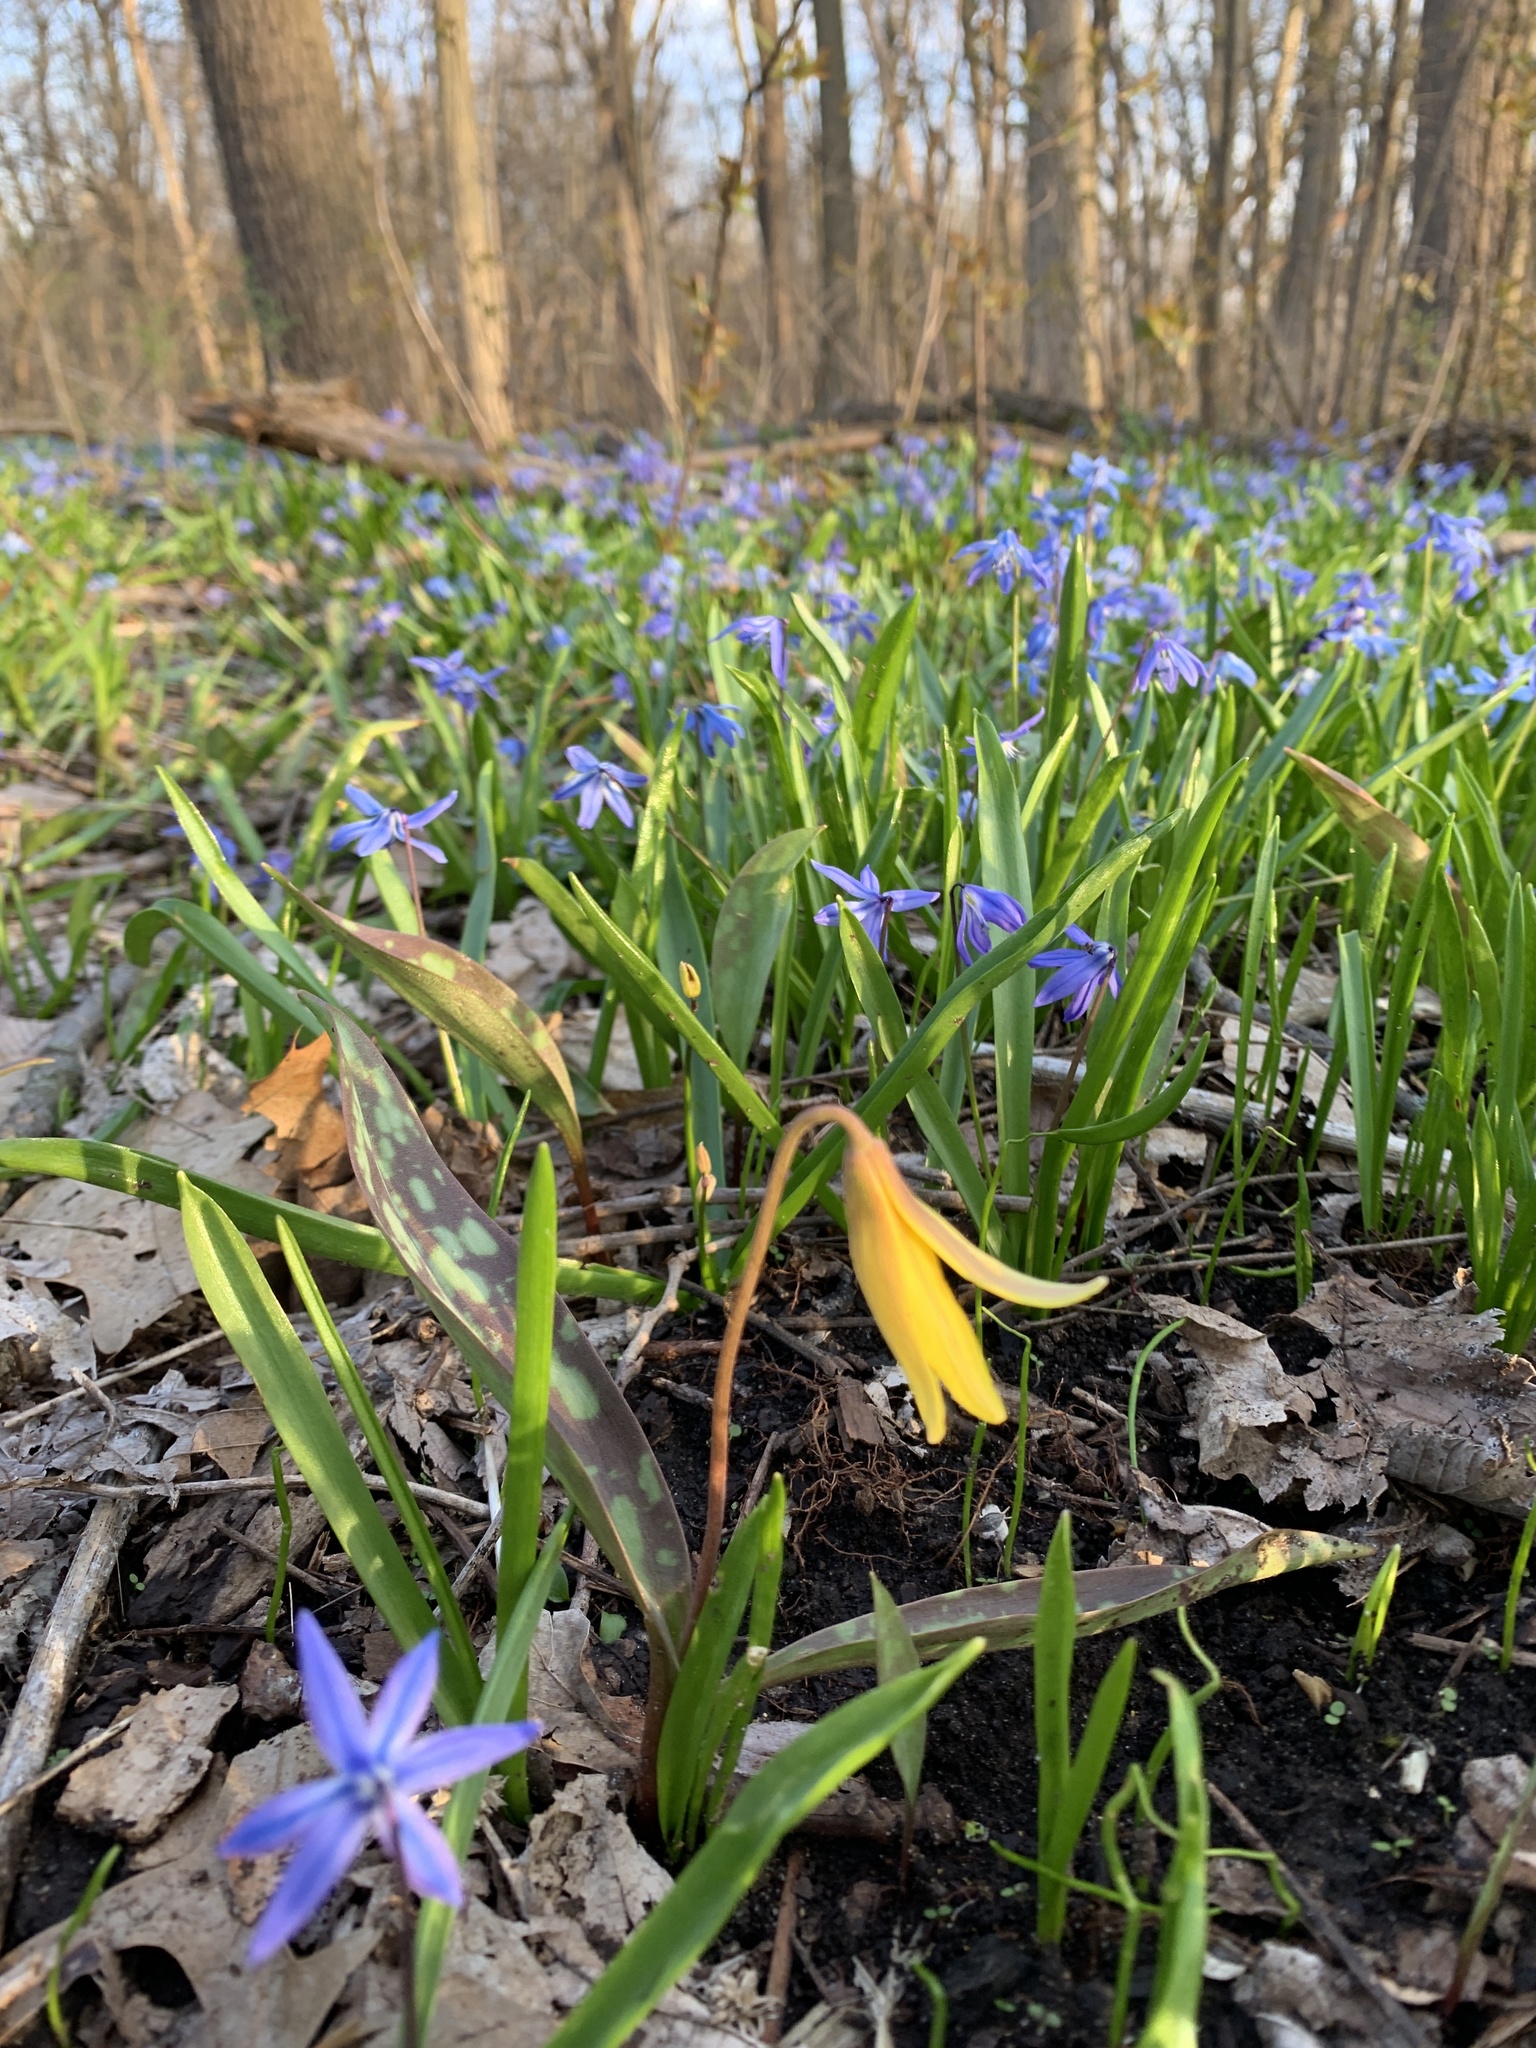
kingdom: Plantae
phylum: Tracheophyta
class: Liliopsida
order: Liliales
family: Liliaceae
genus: Erythronium
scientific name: Erythronium americanum
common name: Yellow adder's-tongue
